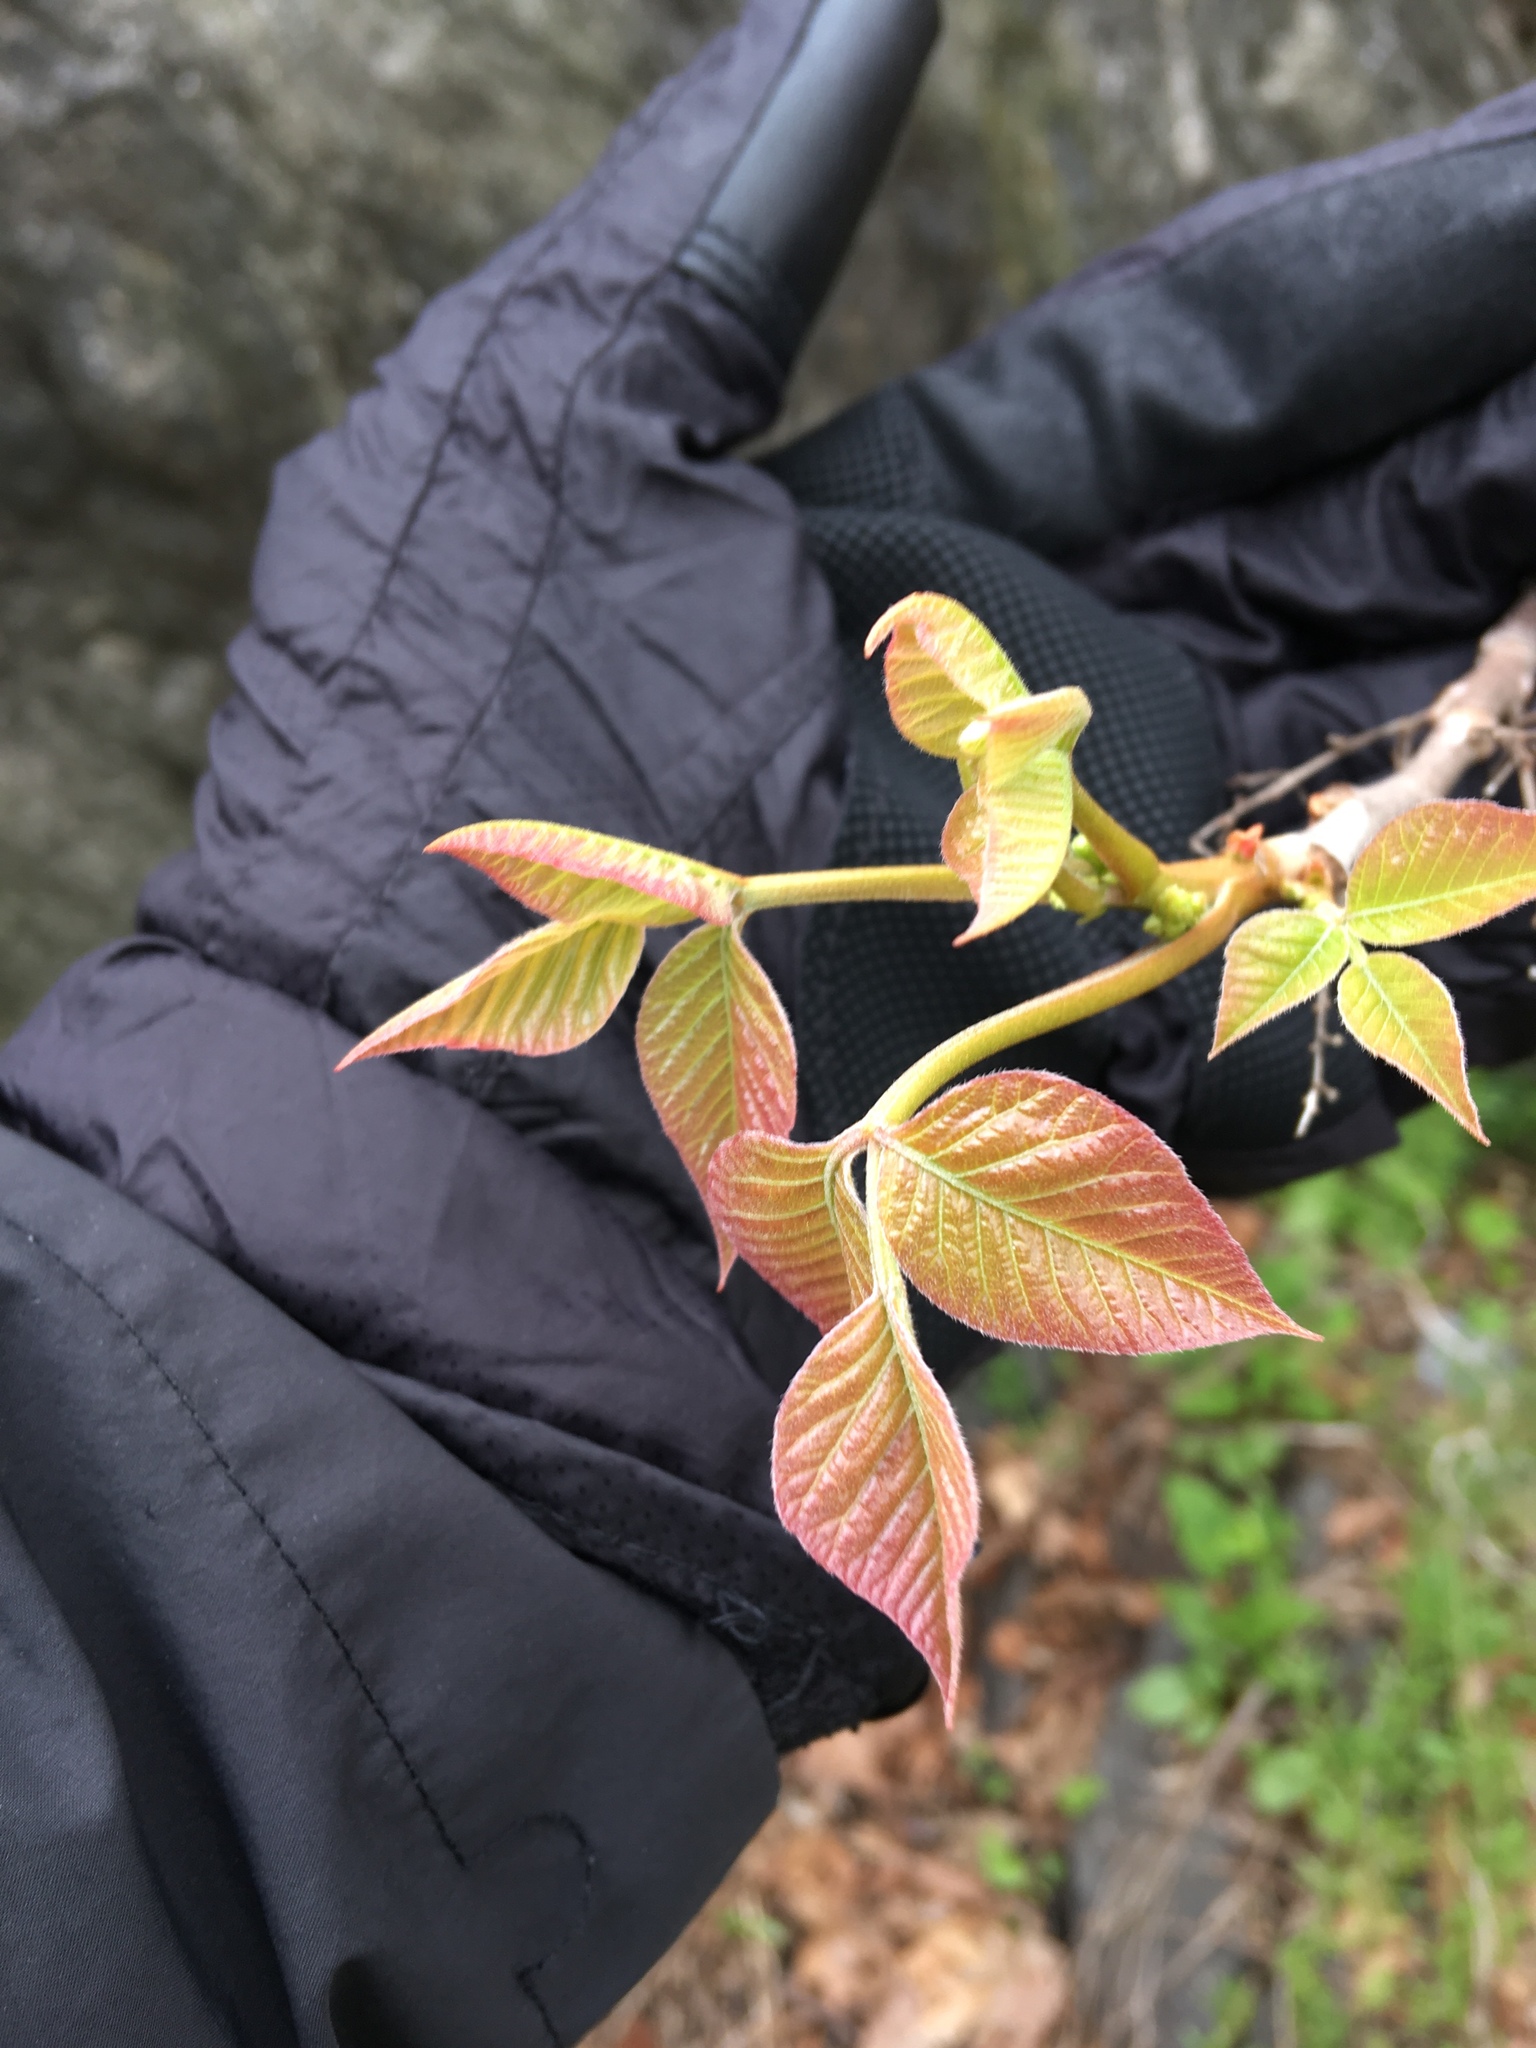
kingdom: Plantae
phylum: Tracheophyta
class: Magnoliopsida
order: Sapindales
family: Anacardiaceae
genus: Toxicodendron
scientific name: Toxicodendron radicans
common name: Poison ivy
